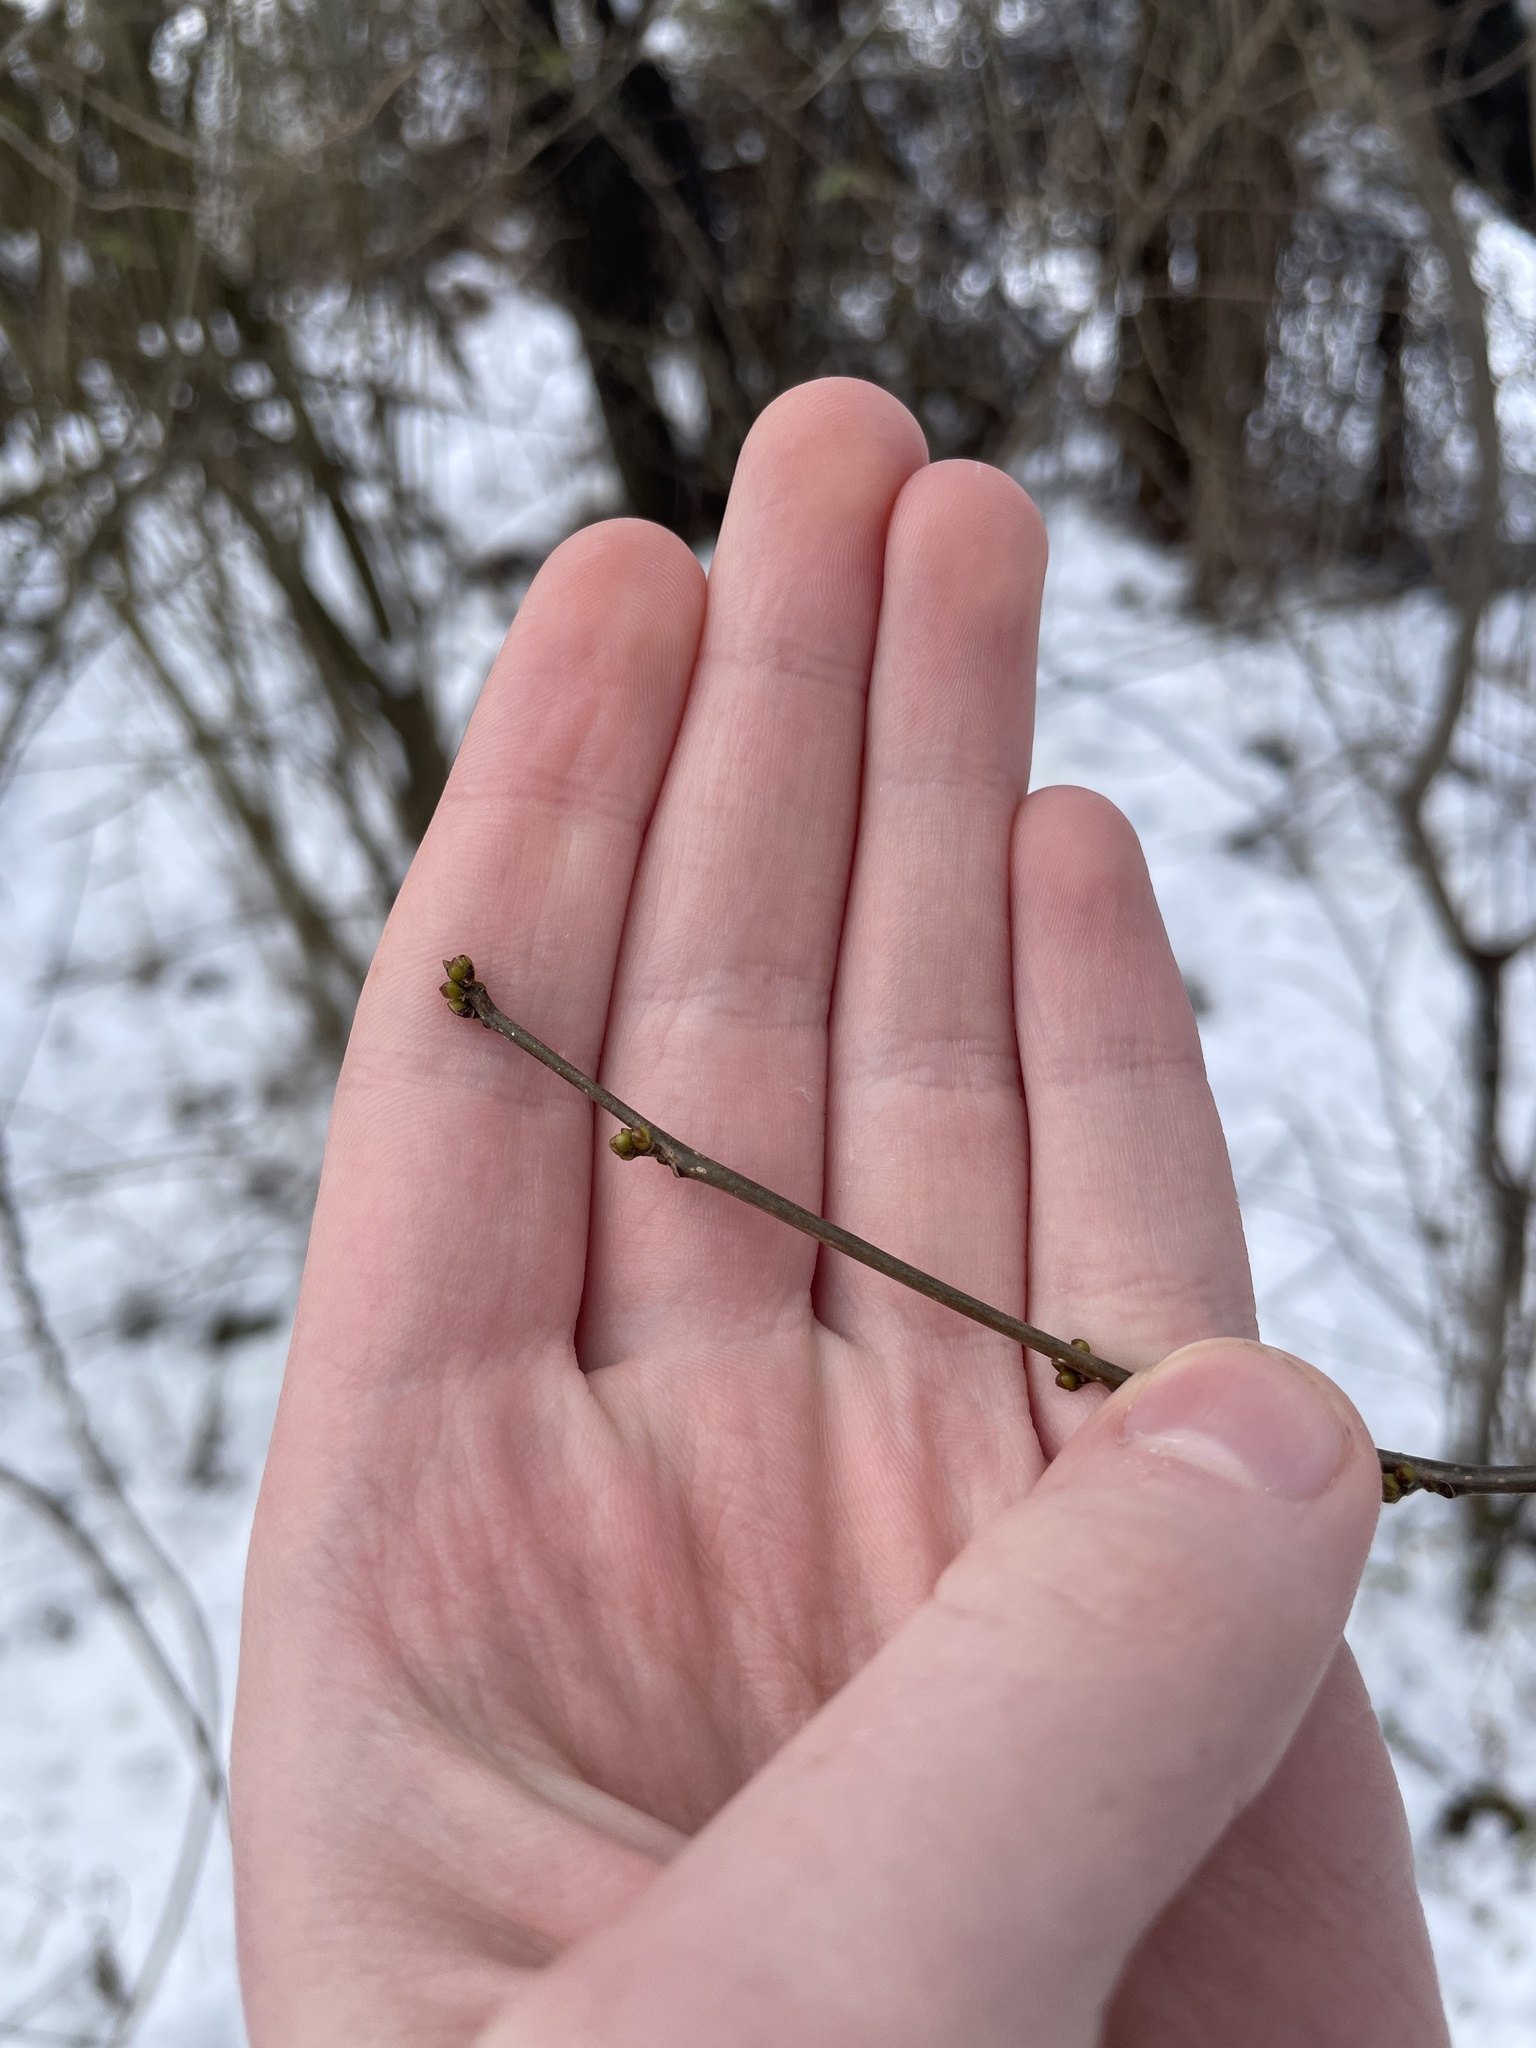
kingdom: Plantae
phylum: Tracheophyta
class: Magnoliopsida
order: Laurales
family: Lauraceae
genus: Lindera
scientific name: Lindera benzoin
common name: Spicebush
